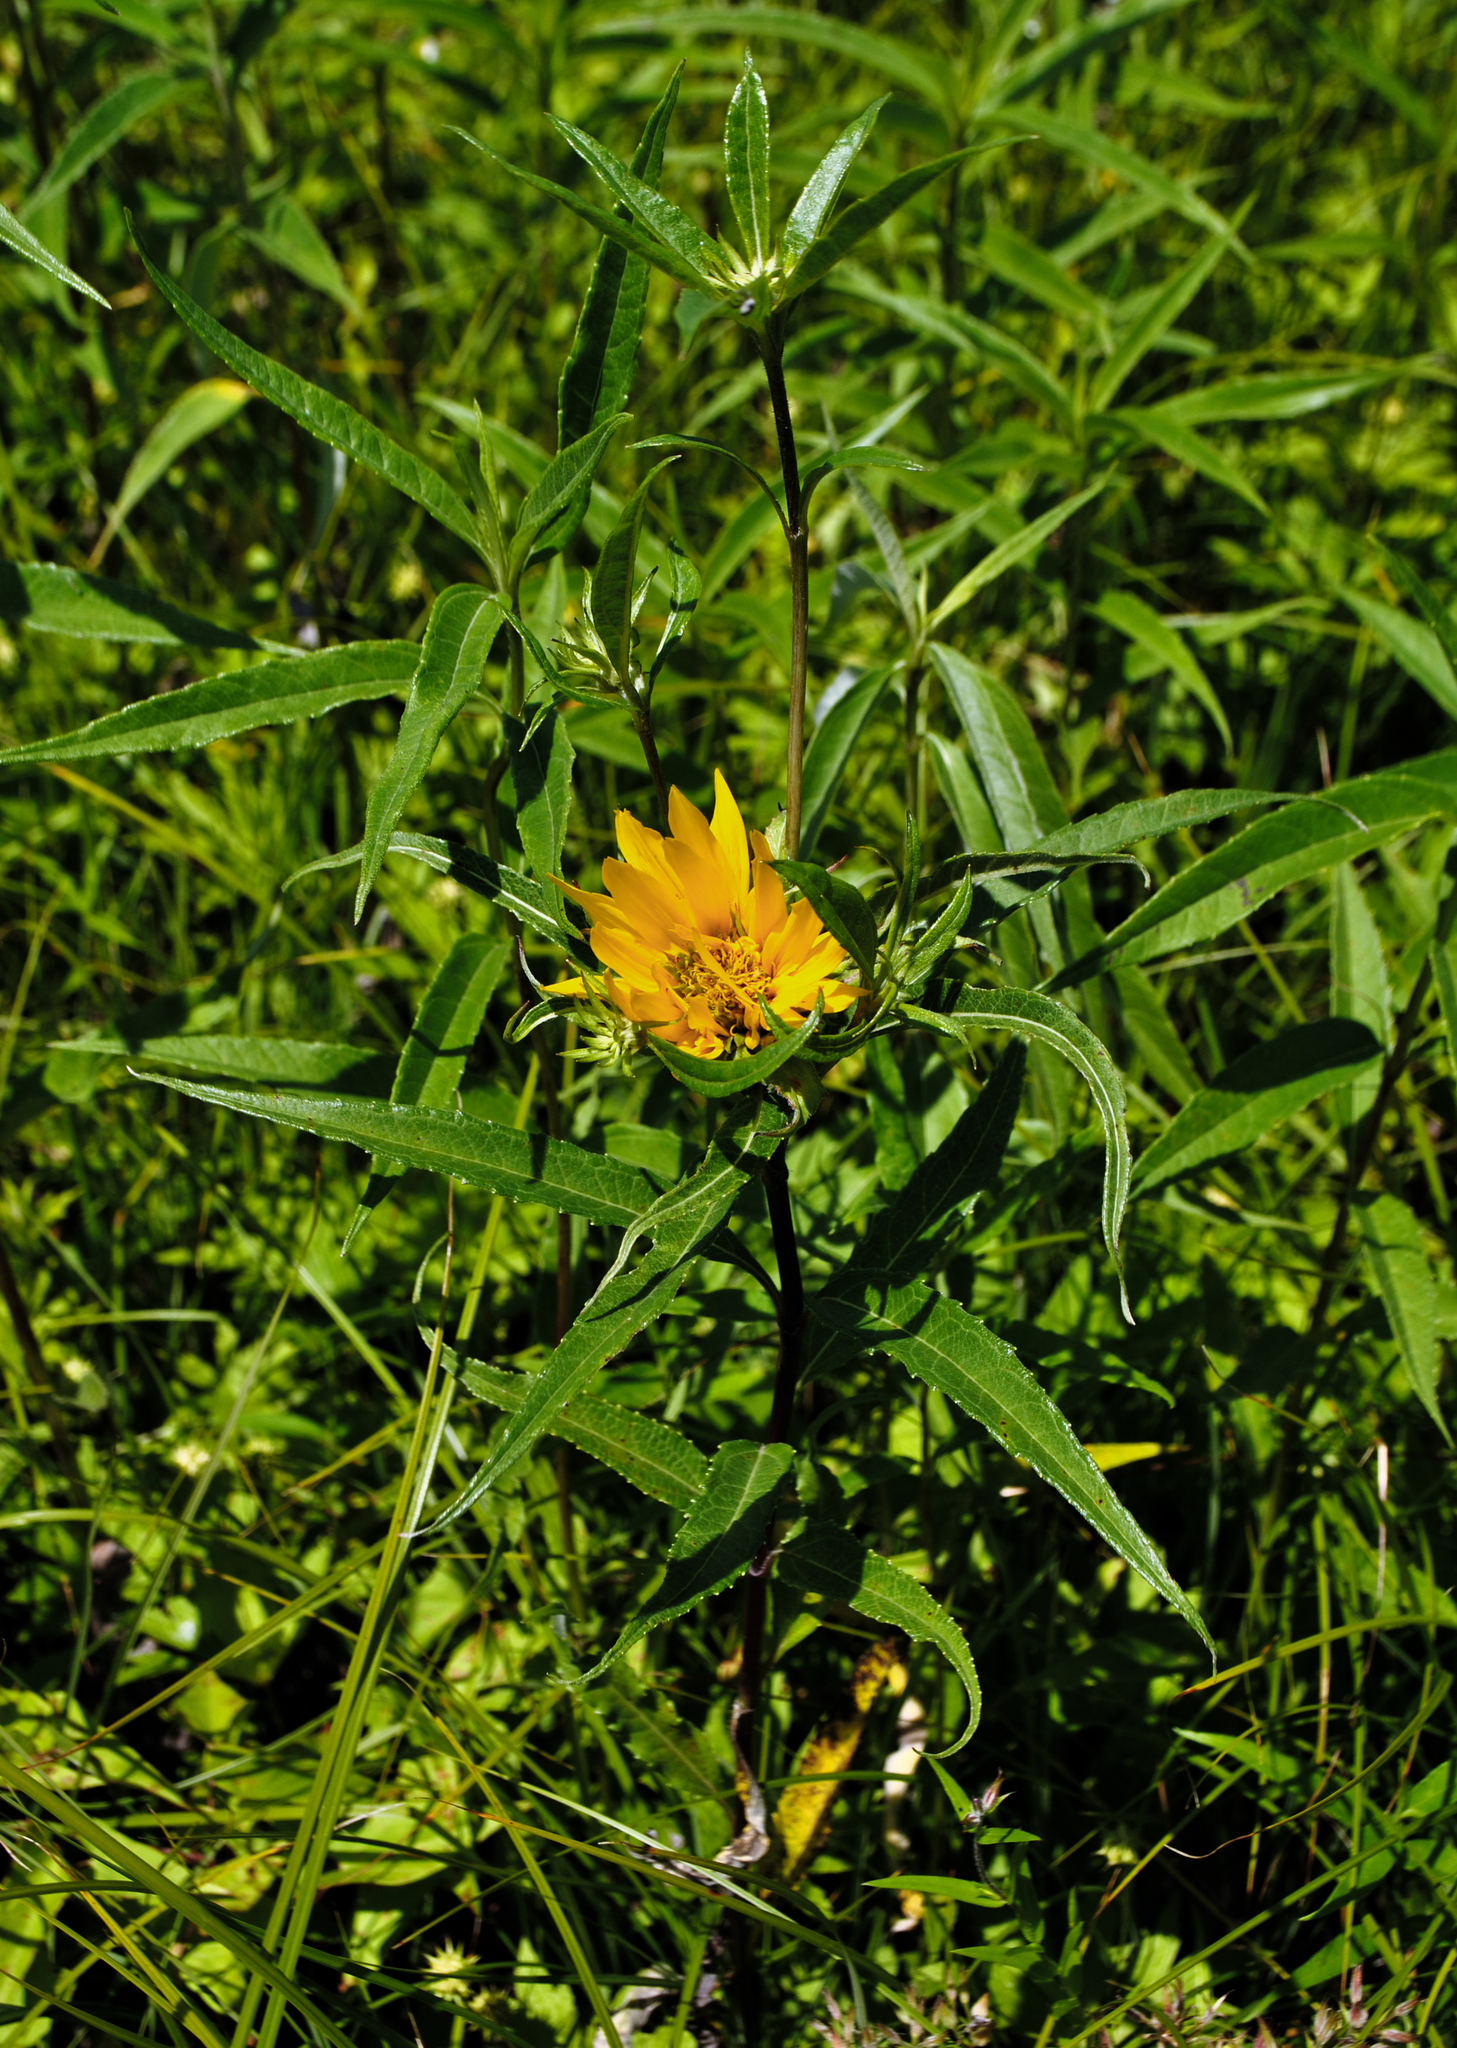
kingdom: Plantae
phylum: Tracheophyta
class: Magnoliopsida
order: Asterales
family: Asteraceae
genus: Helianthus
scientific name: Helianthus grosseserratus
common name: Sawtooth sunflower
